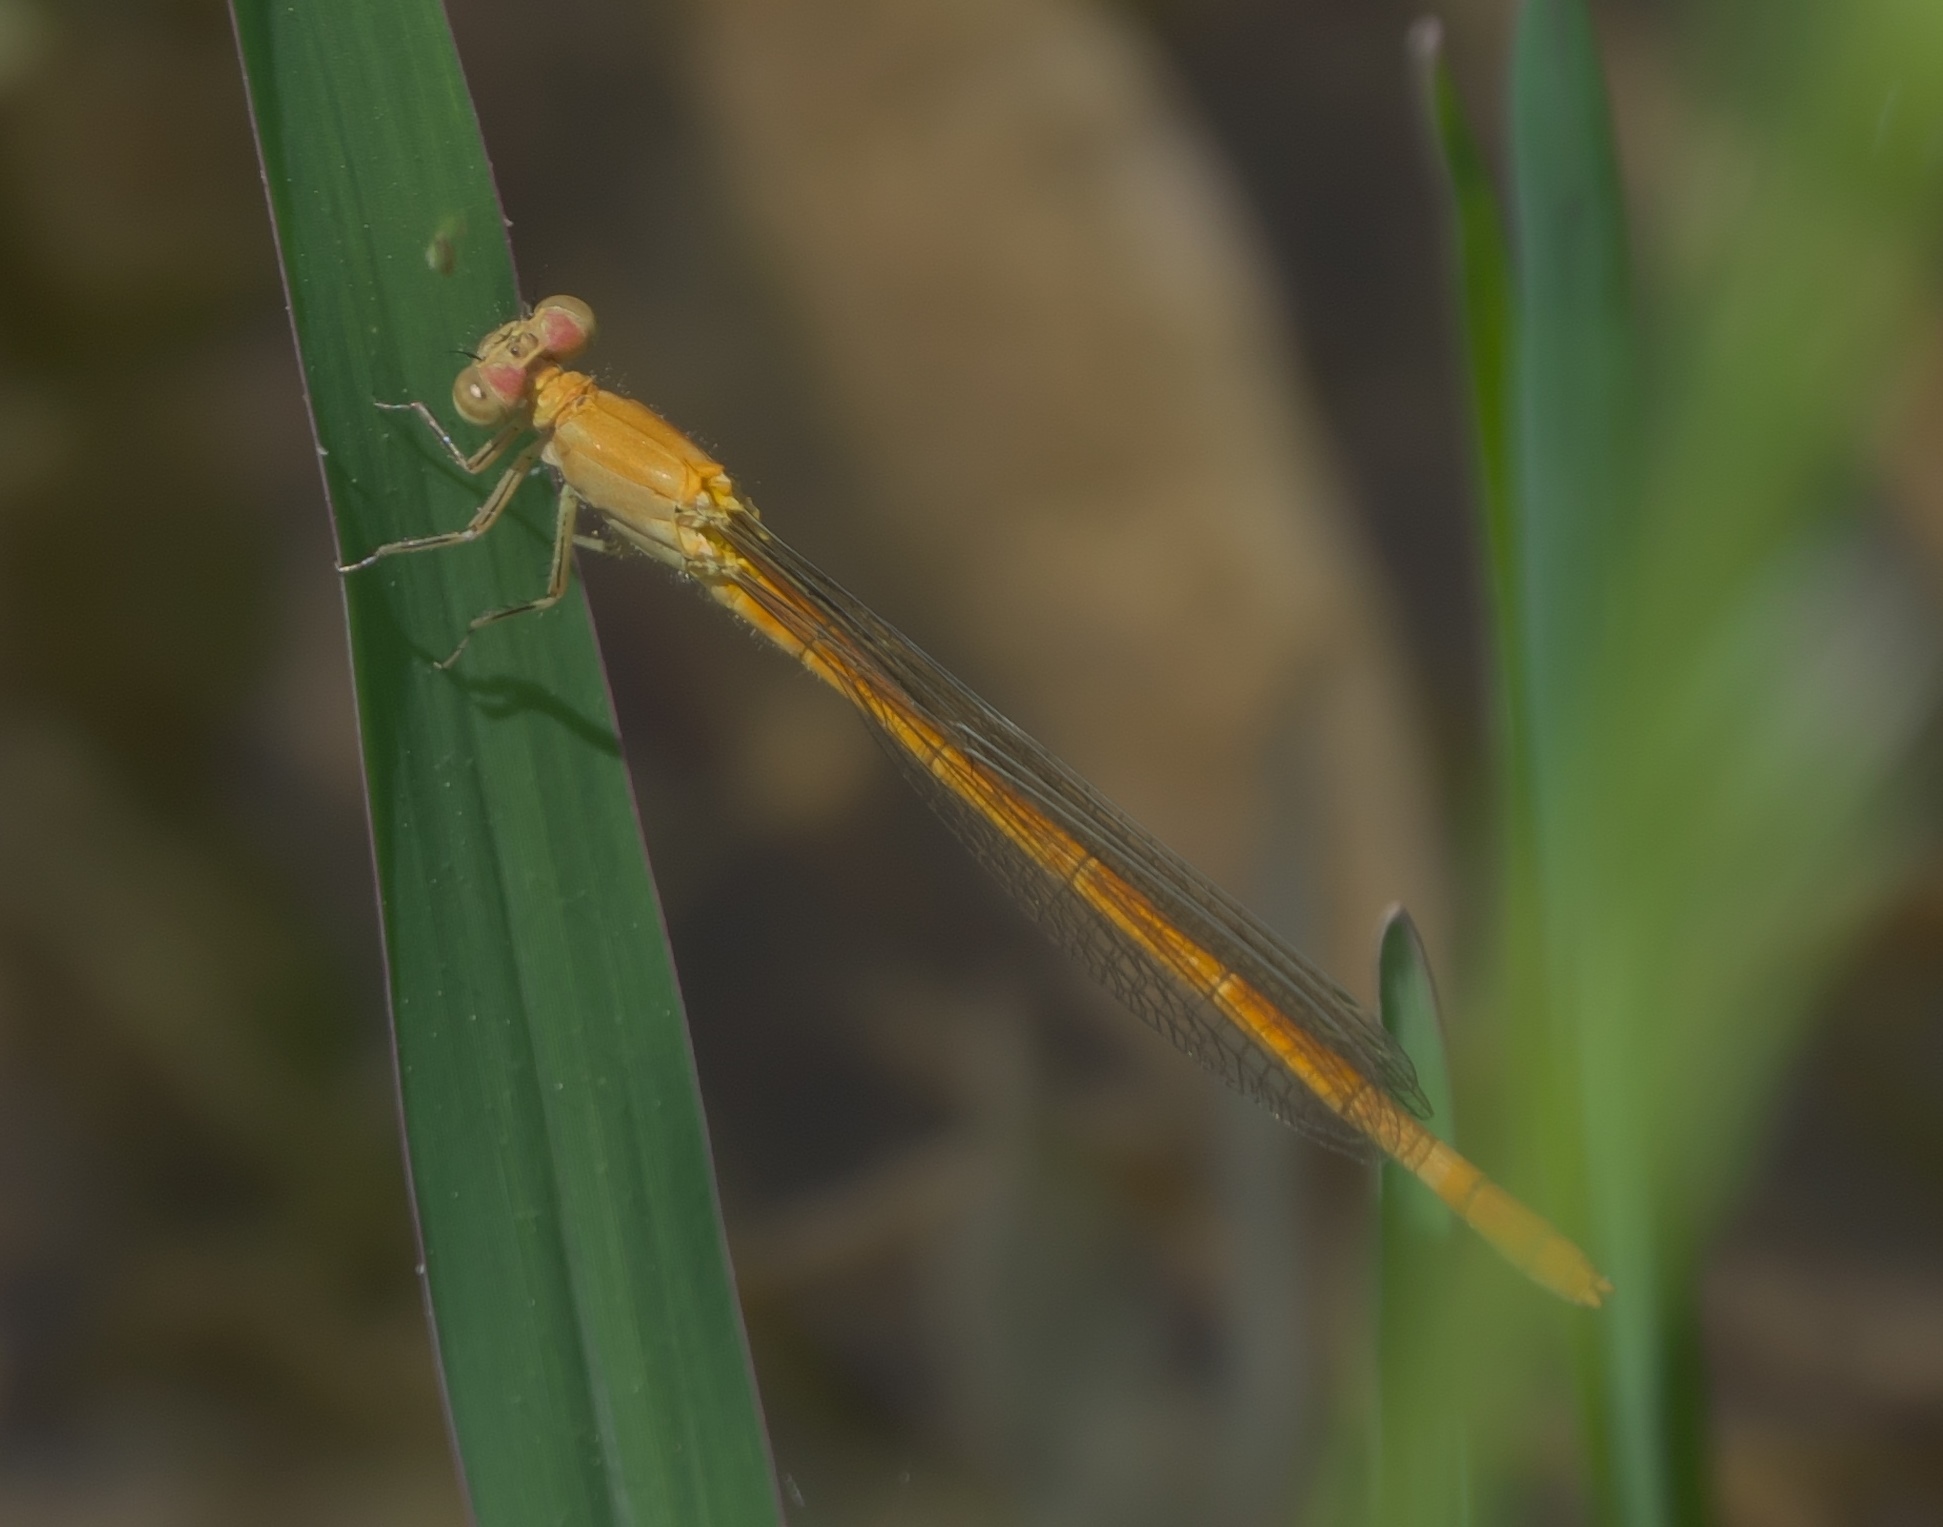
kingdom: Animalia
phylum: Arthropoda
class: Insecta
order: Odonata
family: Coenagrionidae
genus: Hesperagrion
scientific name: Hesperagrion heterodoxum
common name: Painted damsel
